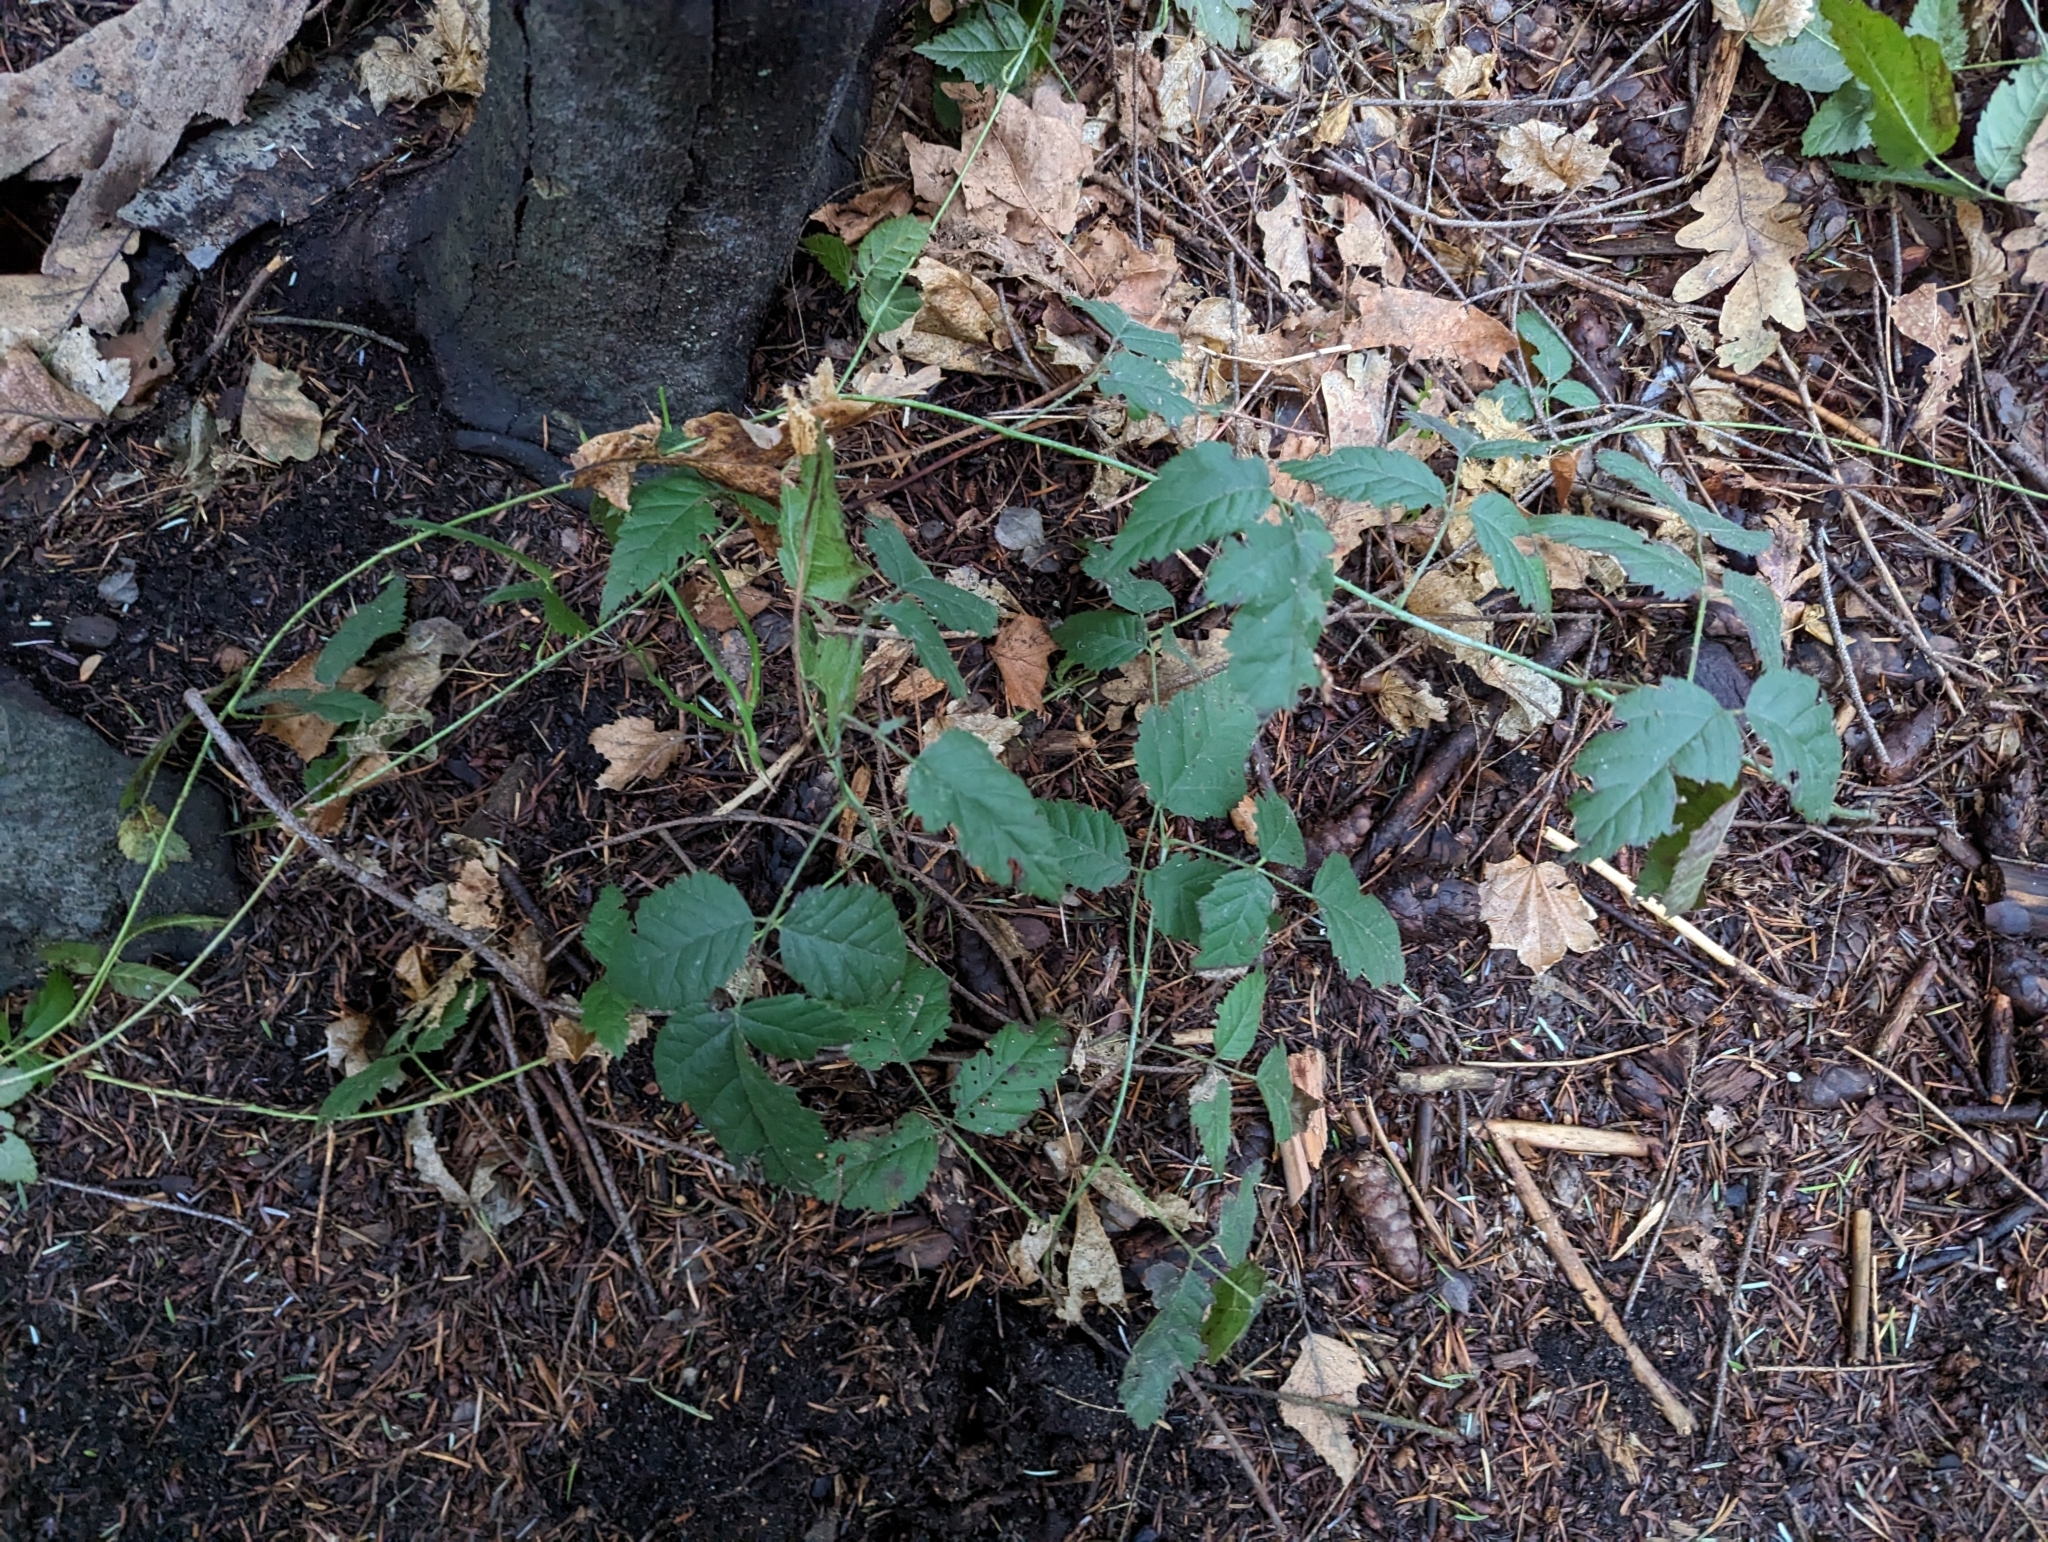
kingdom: Plantae
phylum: Tracheophyta
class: Magnoliopsida
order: Rosales
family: Rosaceae
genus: Rubus
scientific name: Rubus ursinus
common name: Pacific blackberry
